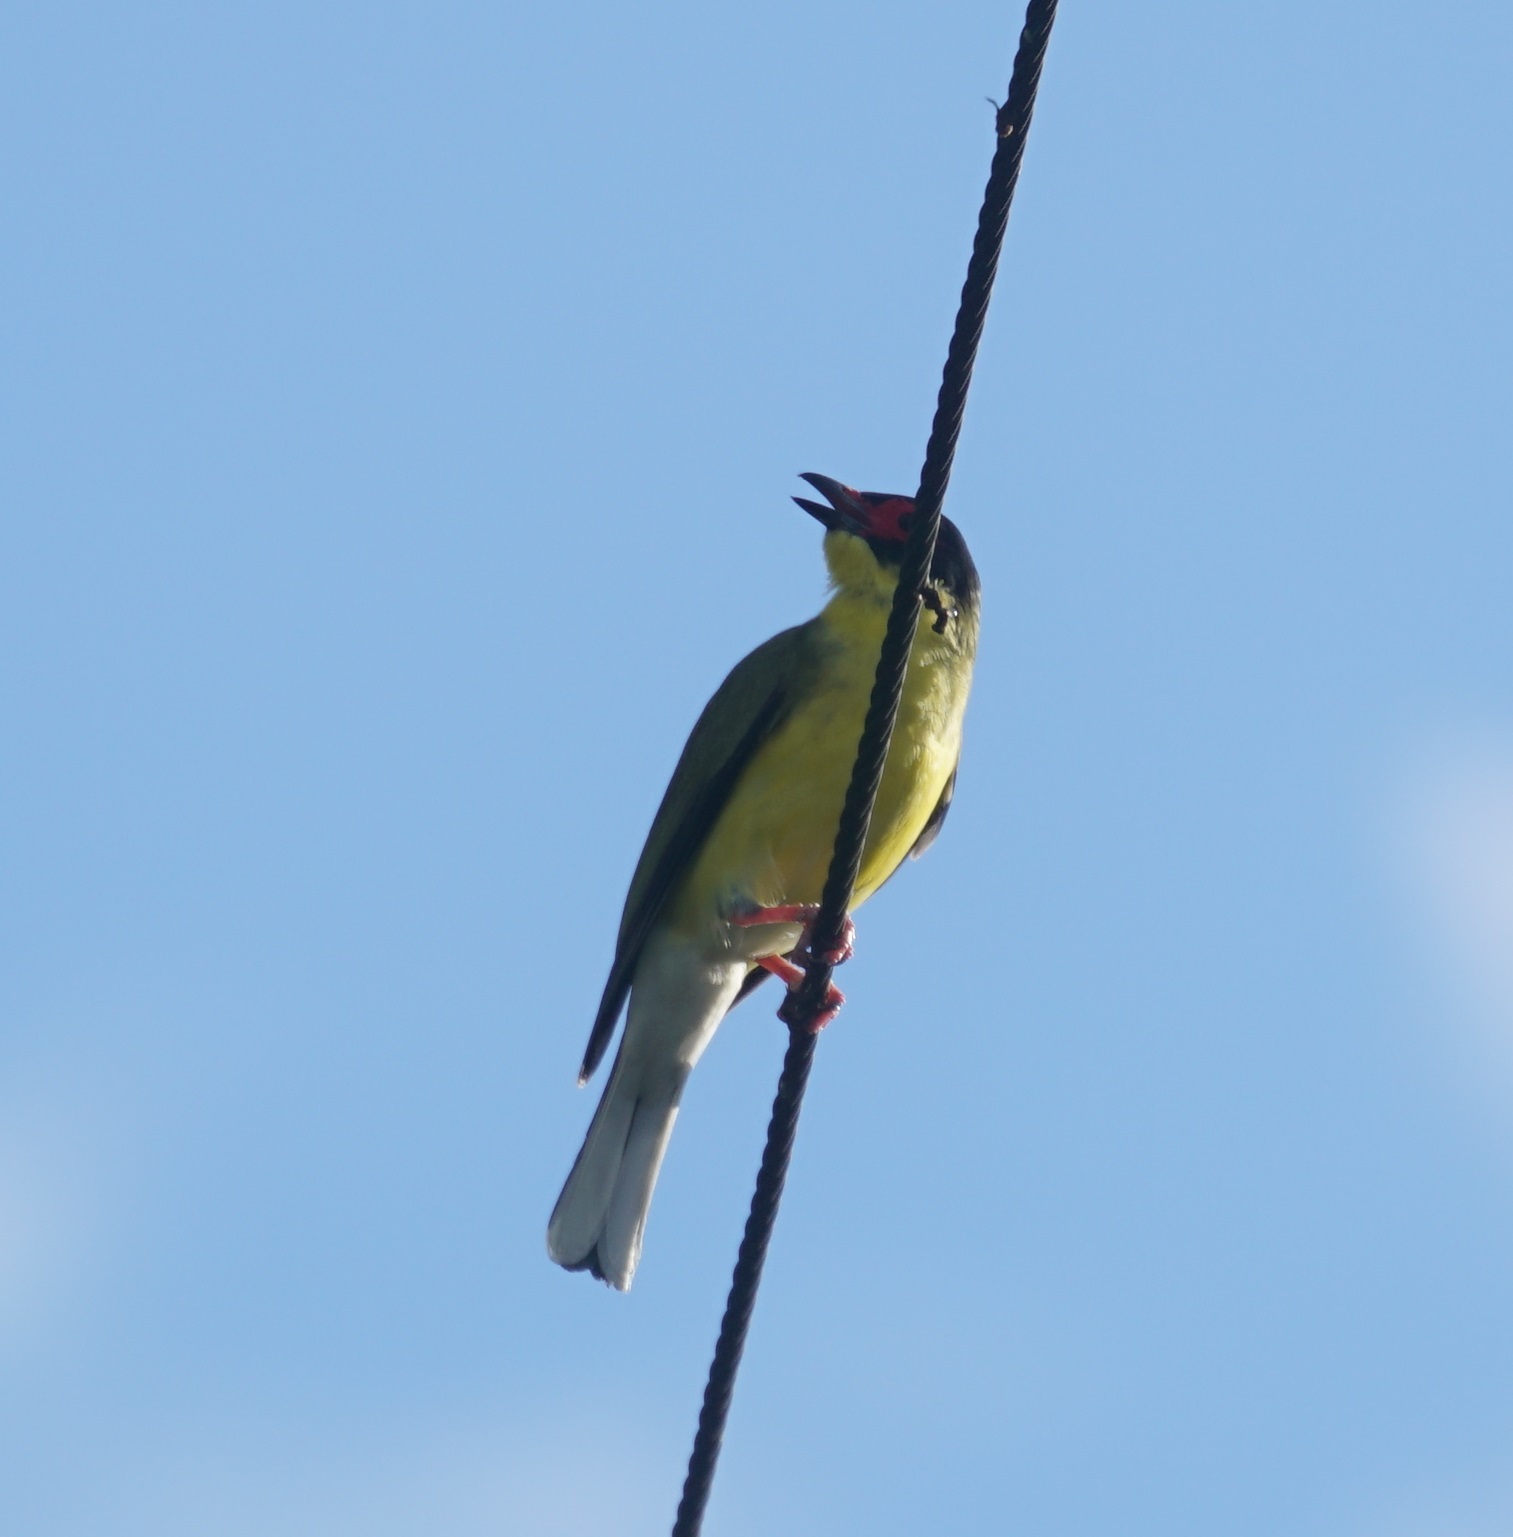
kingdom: Animalia
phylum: Chordata
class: Aves
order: Passeriformes
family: Oriolidae
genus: Sphecotheres
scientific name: Sphecotheres vieilloti
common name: Australasian figbird
